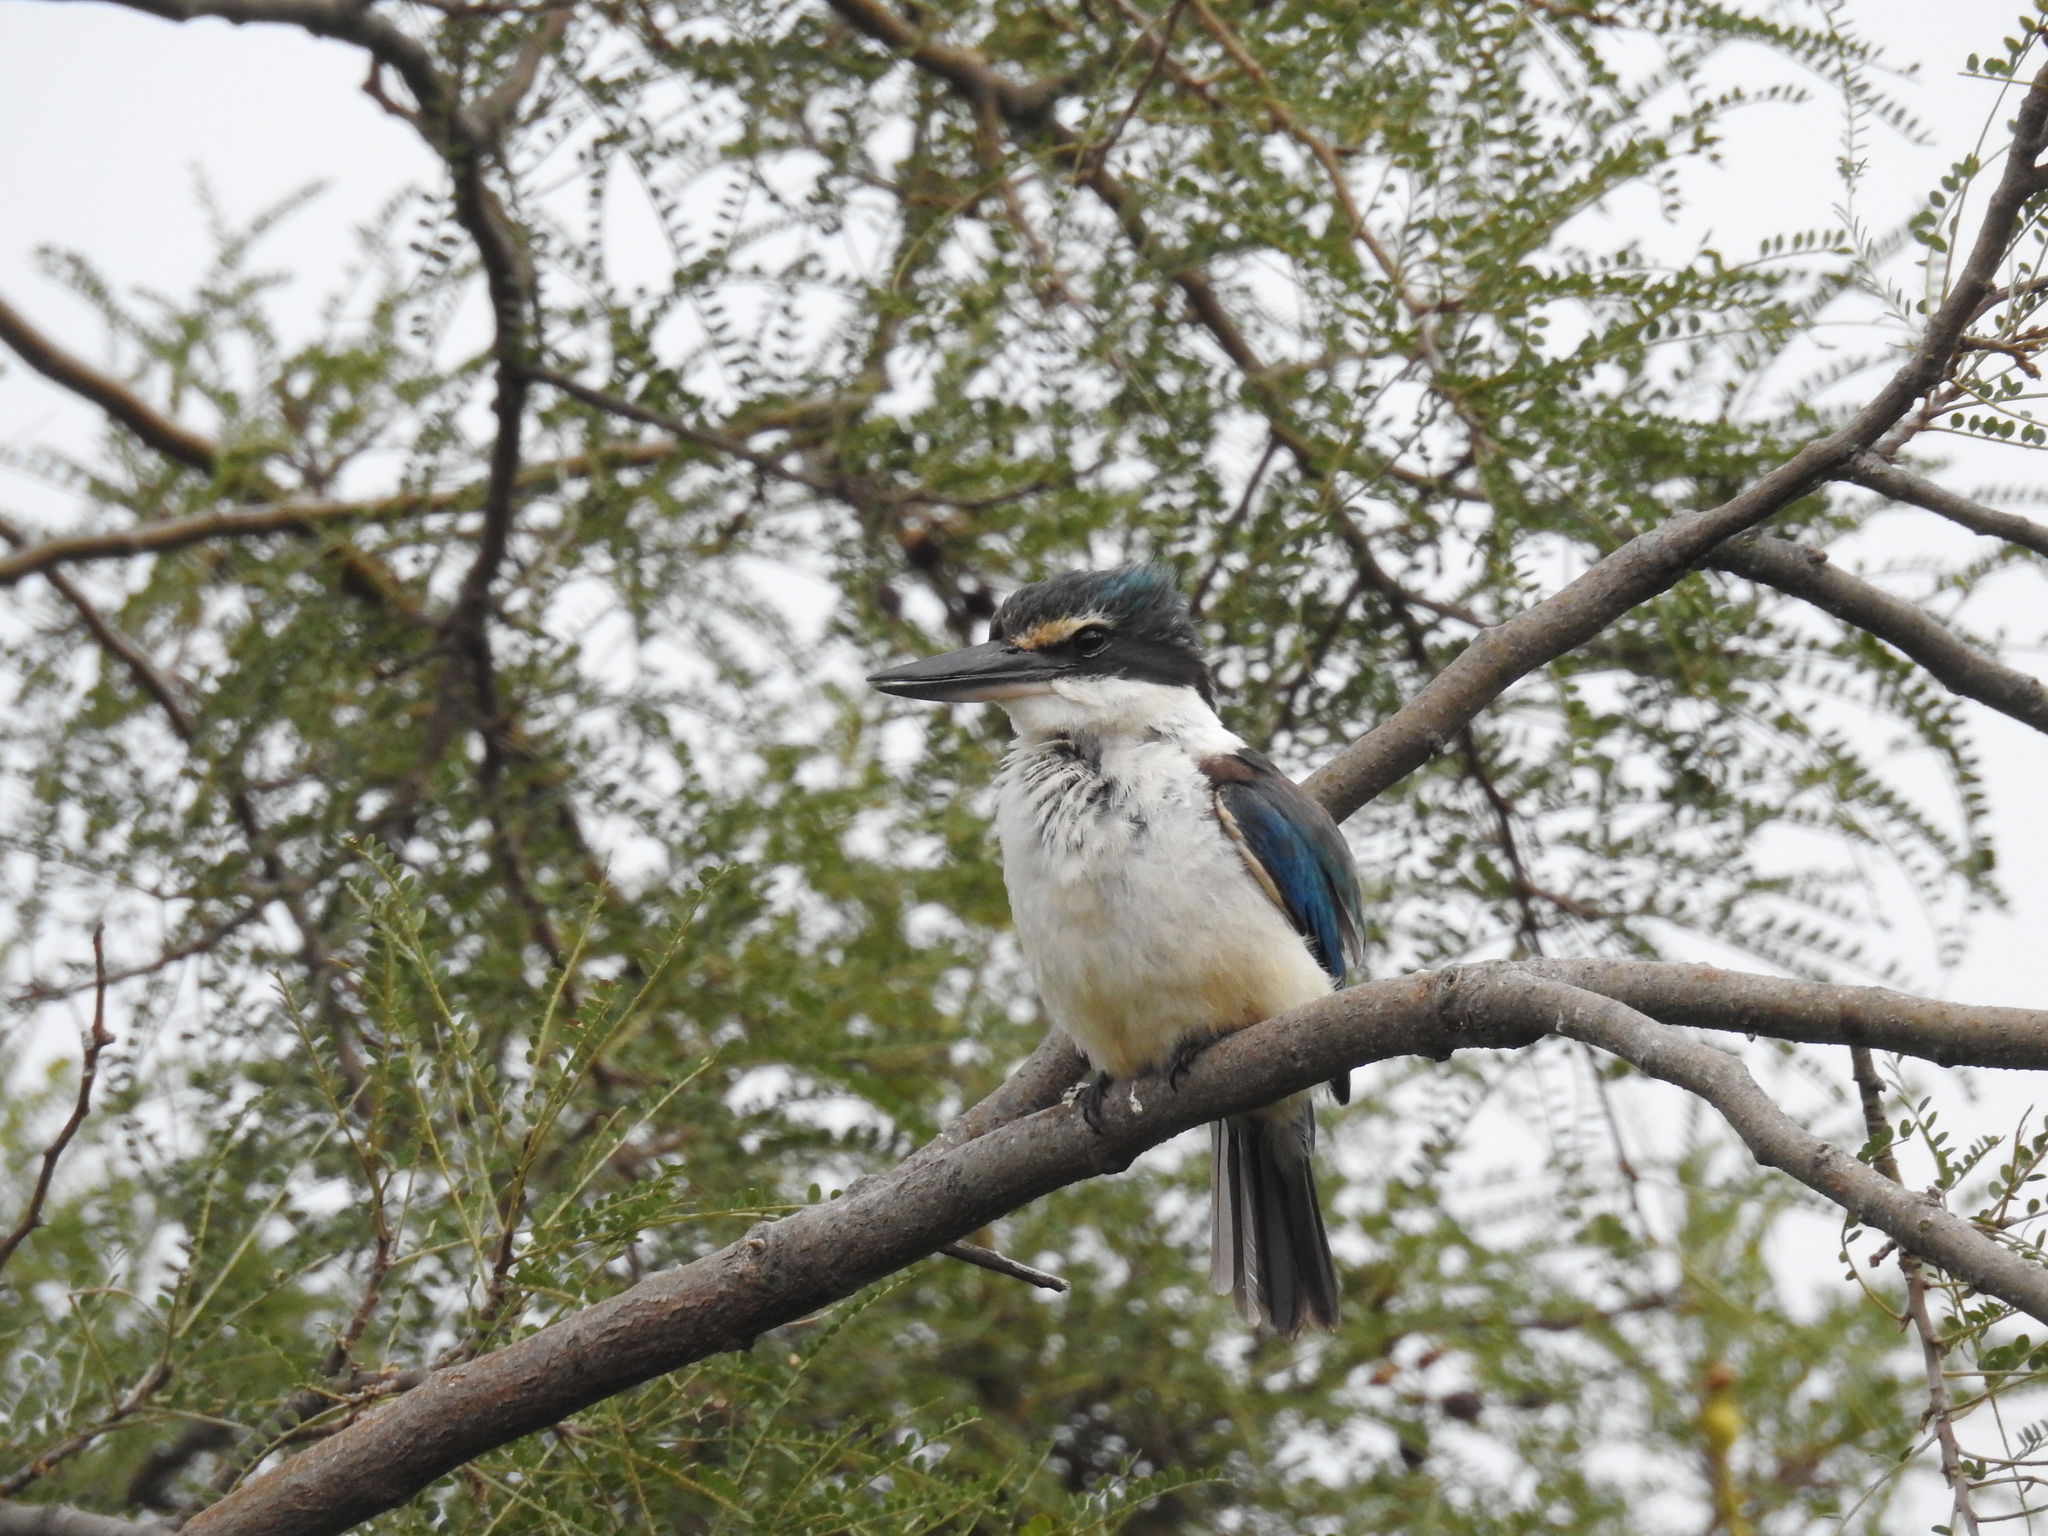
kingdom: Animalia
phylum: Chordata
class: Aves
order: Coraciiformes
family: Alcedinidae
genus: Todiramphus
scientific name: Todiramphus sanctus
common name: Sacred kingfisher
